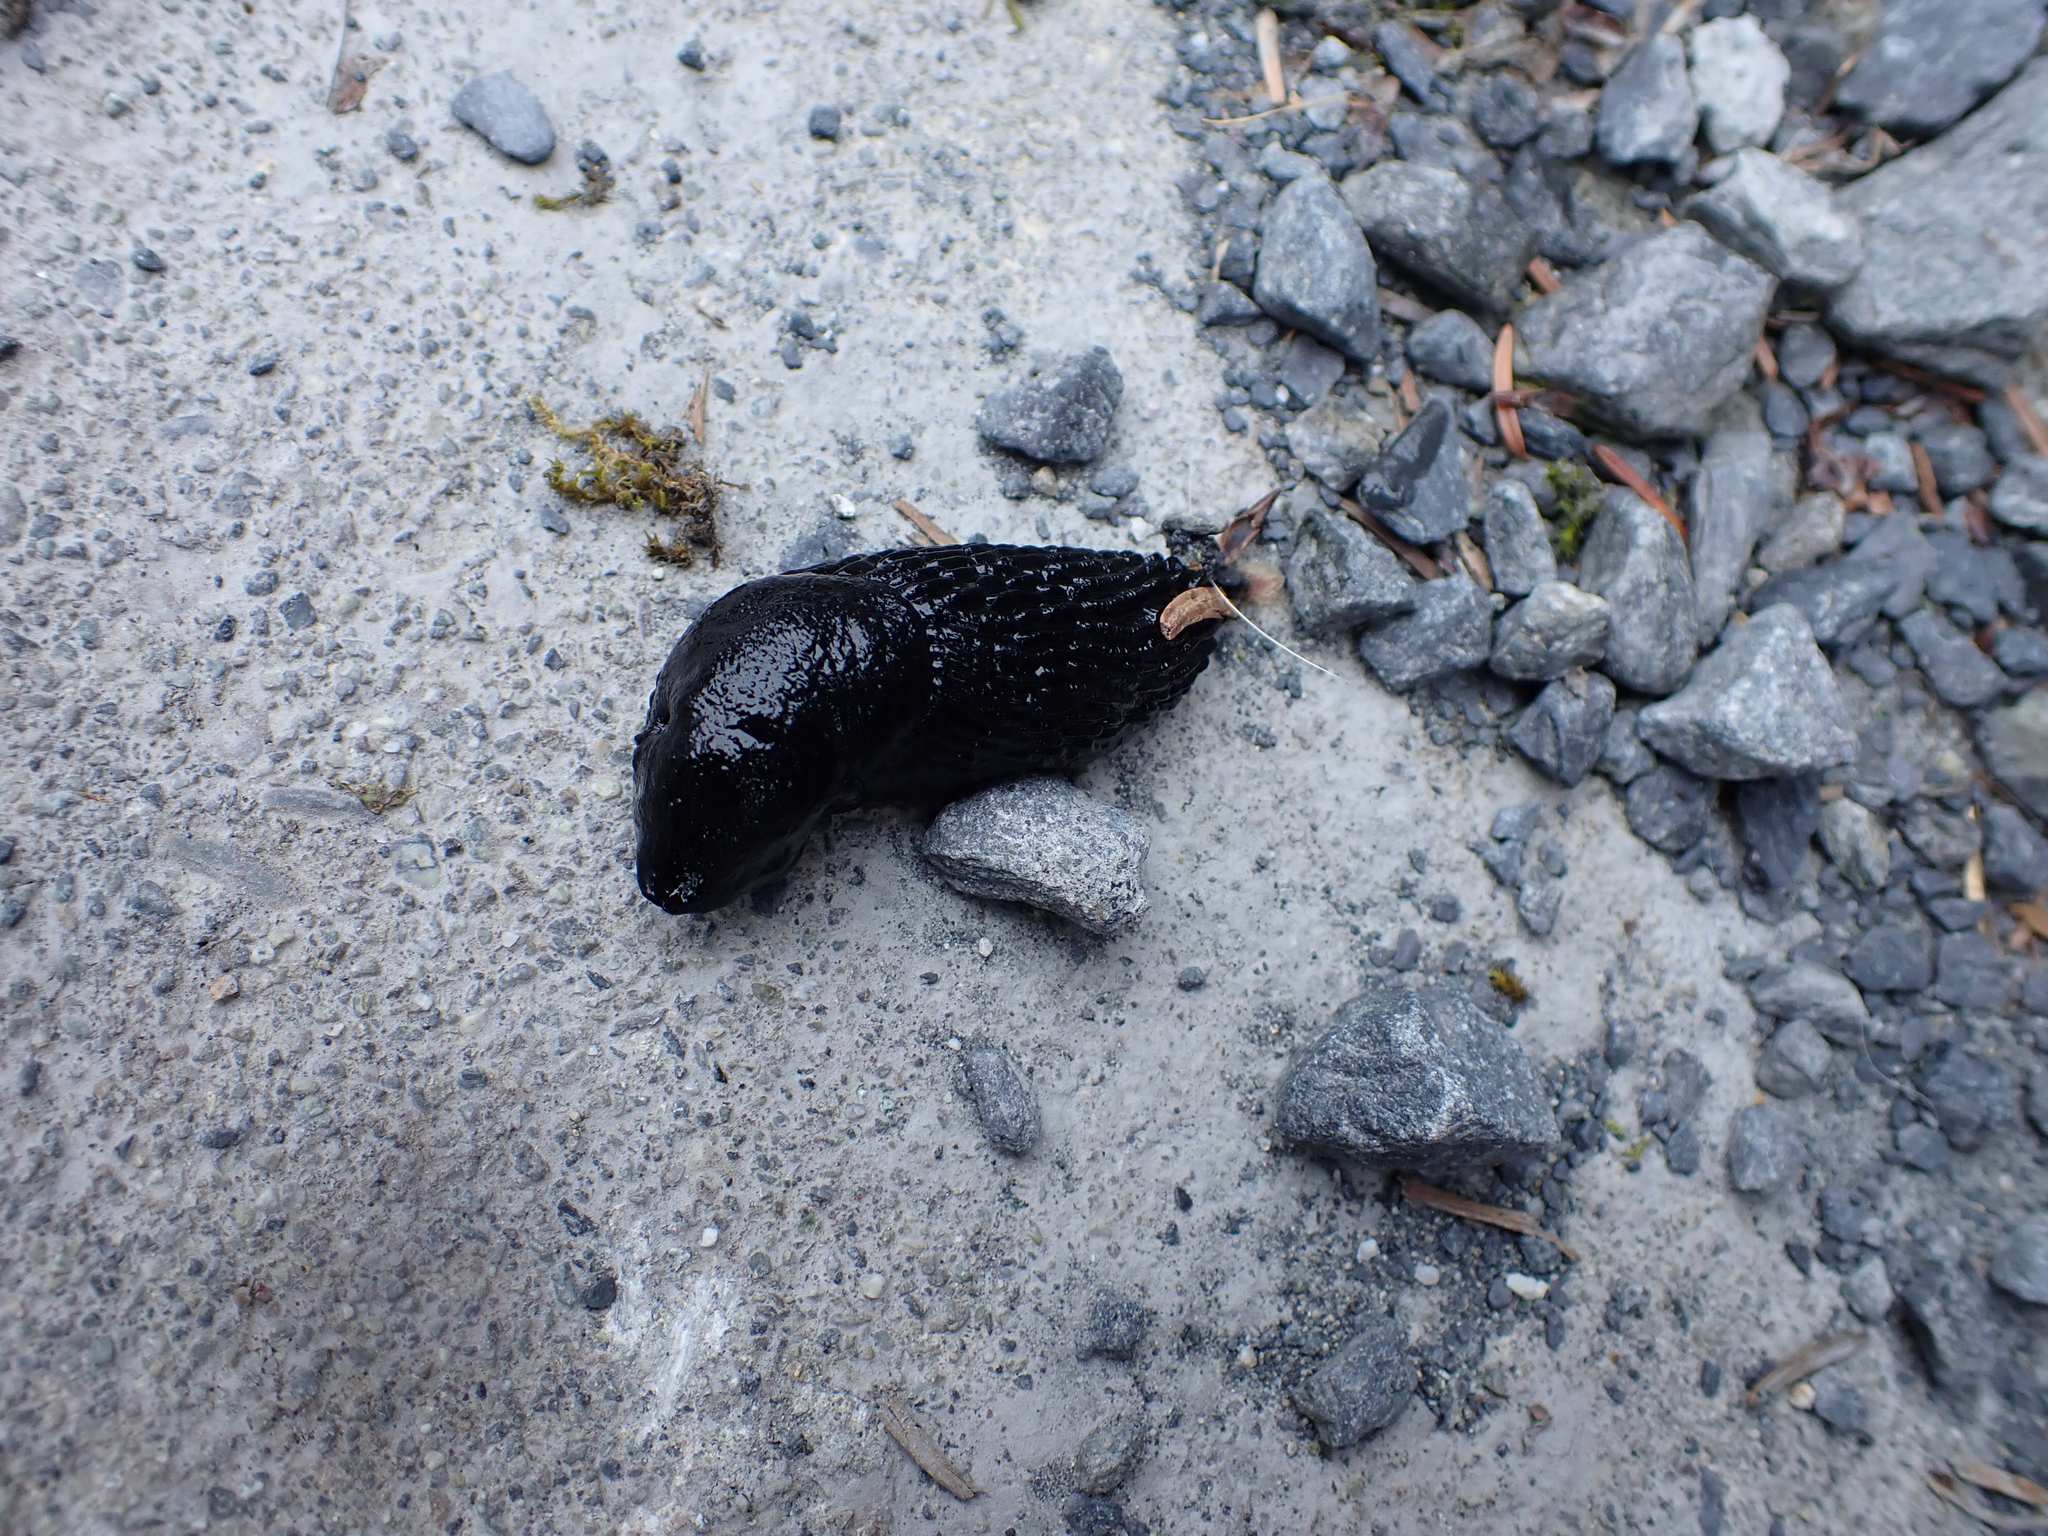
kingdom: Animalia
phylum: Mollusca
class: Gastropoda
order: Stylommatophora
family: Arionidae
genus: Arion
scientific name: Arion
